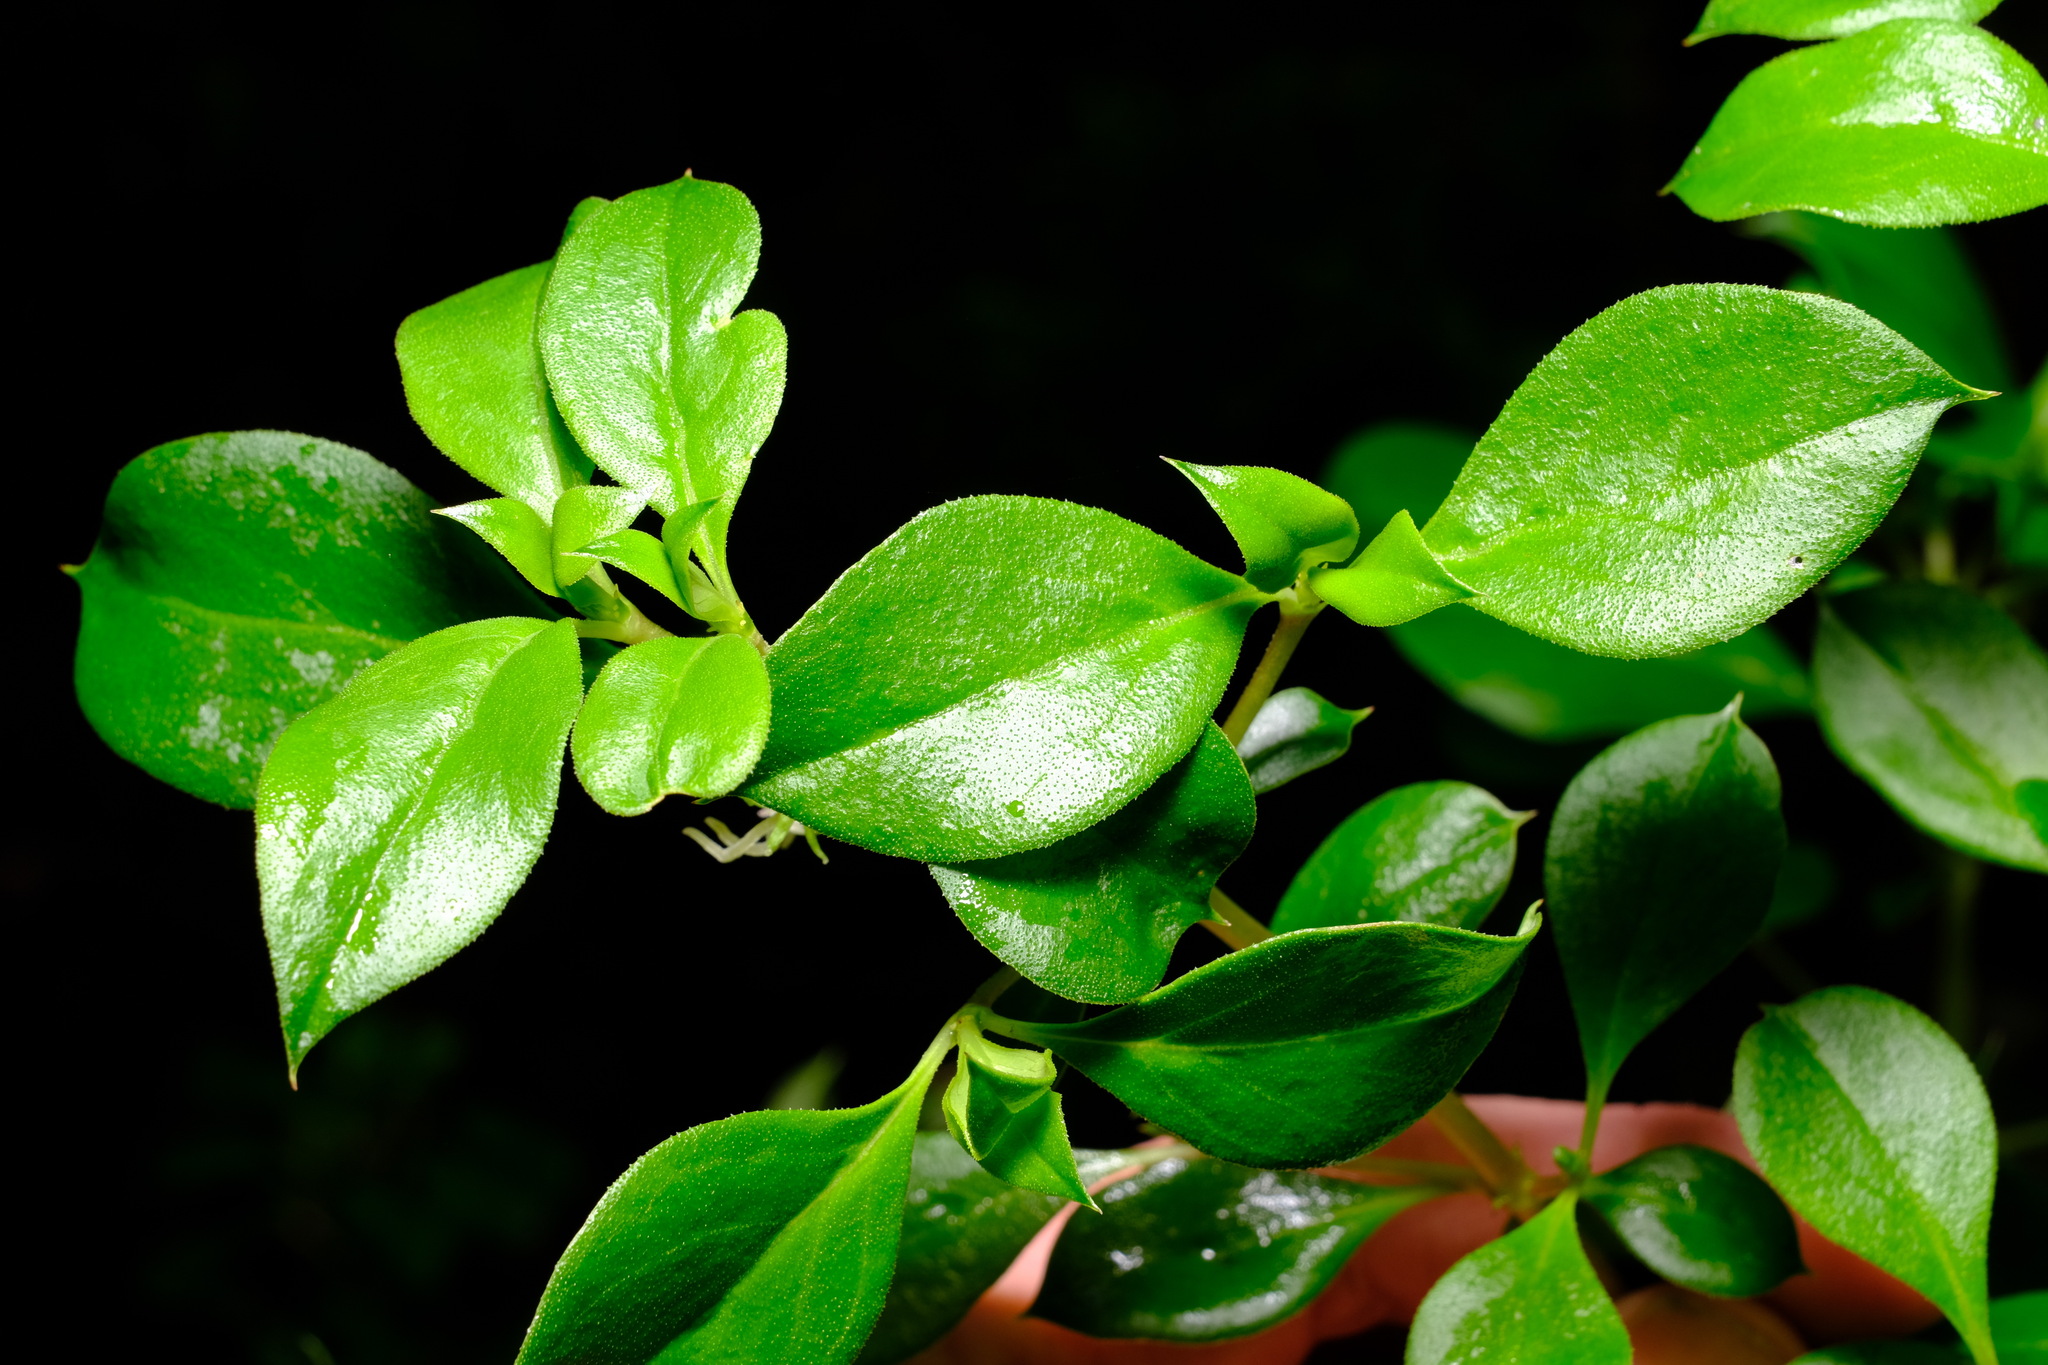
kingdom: Plantae
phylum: Tracheophyta
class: Magnoliopsida
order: Gentianales
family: Rubiaceae
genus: Coprosma
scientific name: Coprosma hirtella
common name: Rough coprosma
